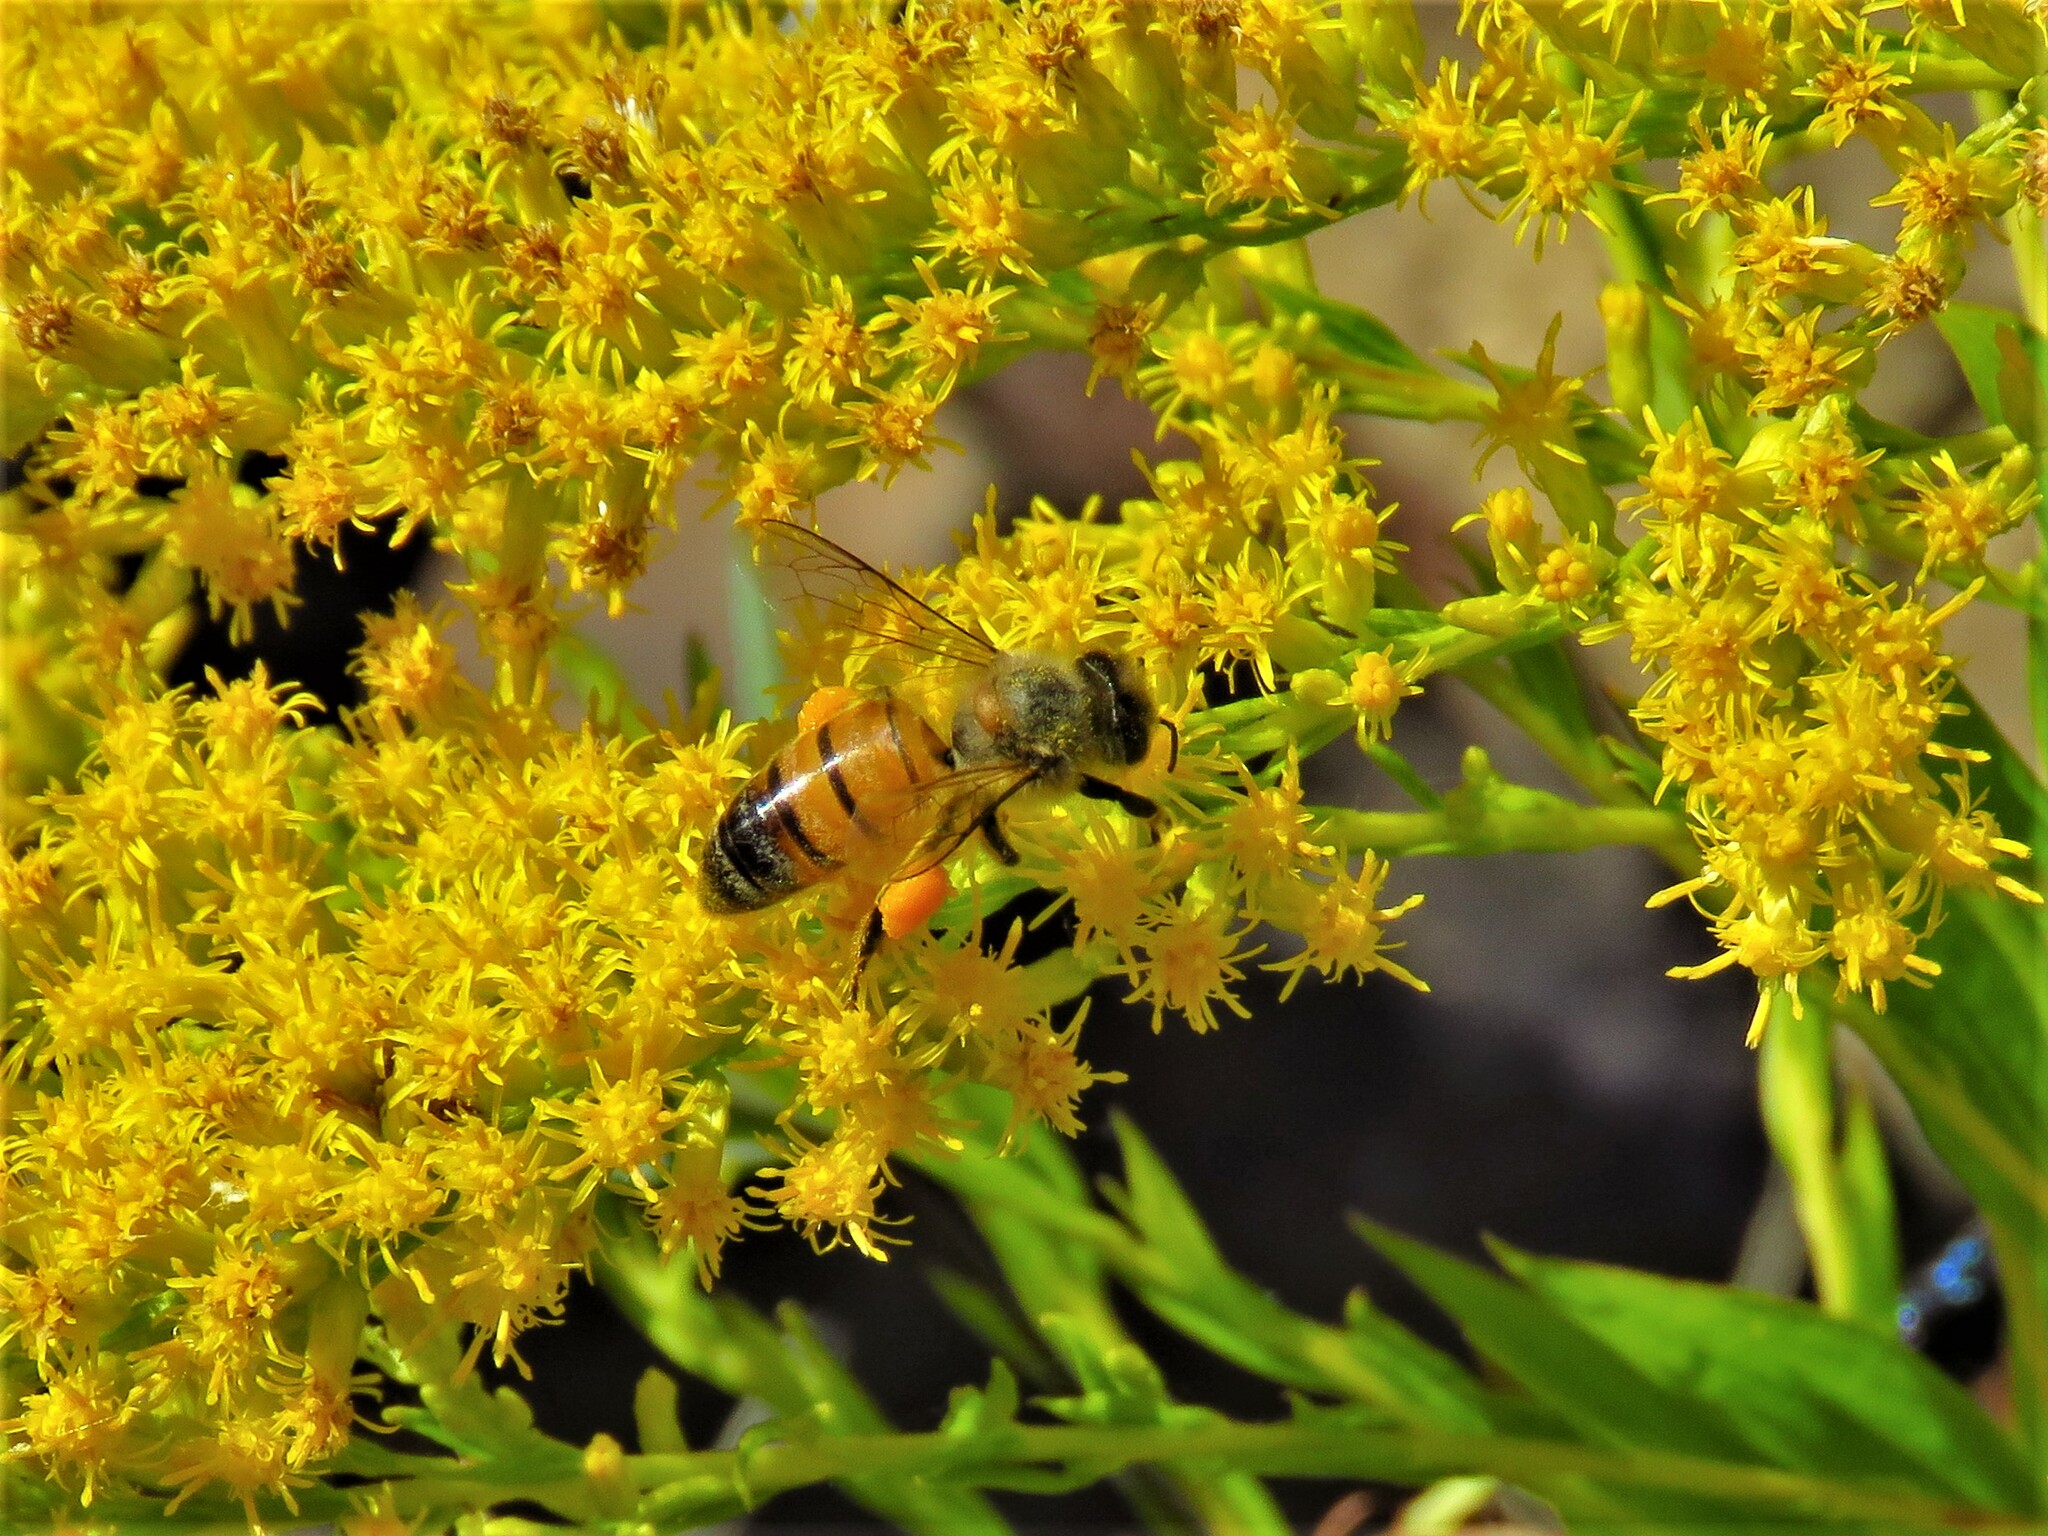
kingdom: Animalia
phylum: Arthropoda
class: Insecta
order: Hymenoptera
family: Apidae
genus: Apis
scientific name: Apis mellifera
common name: Honey bee
